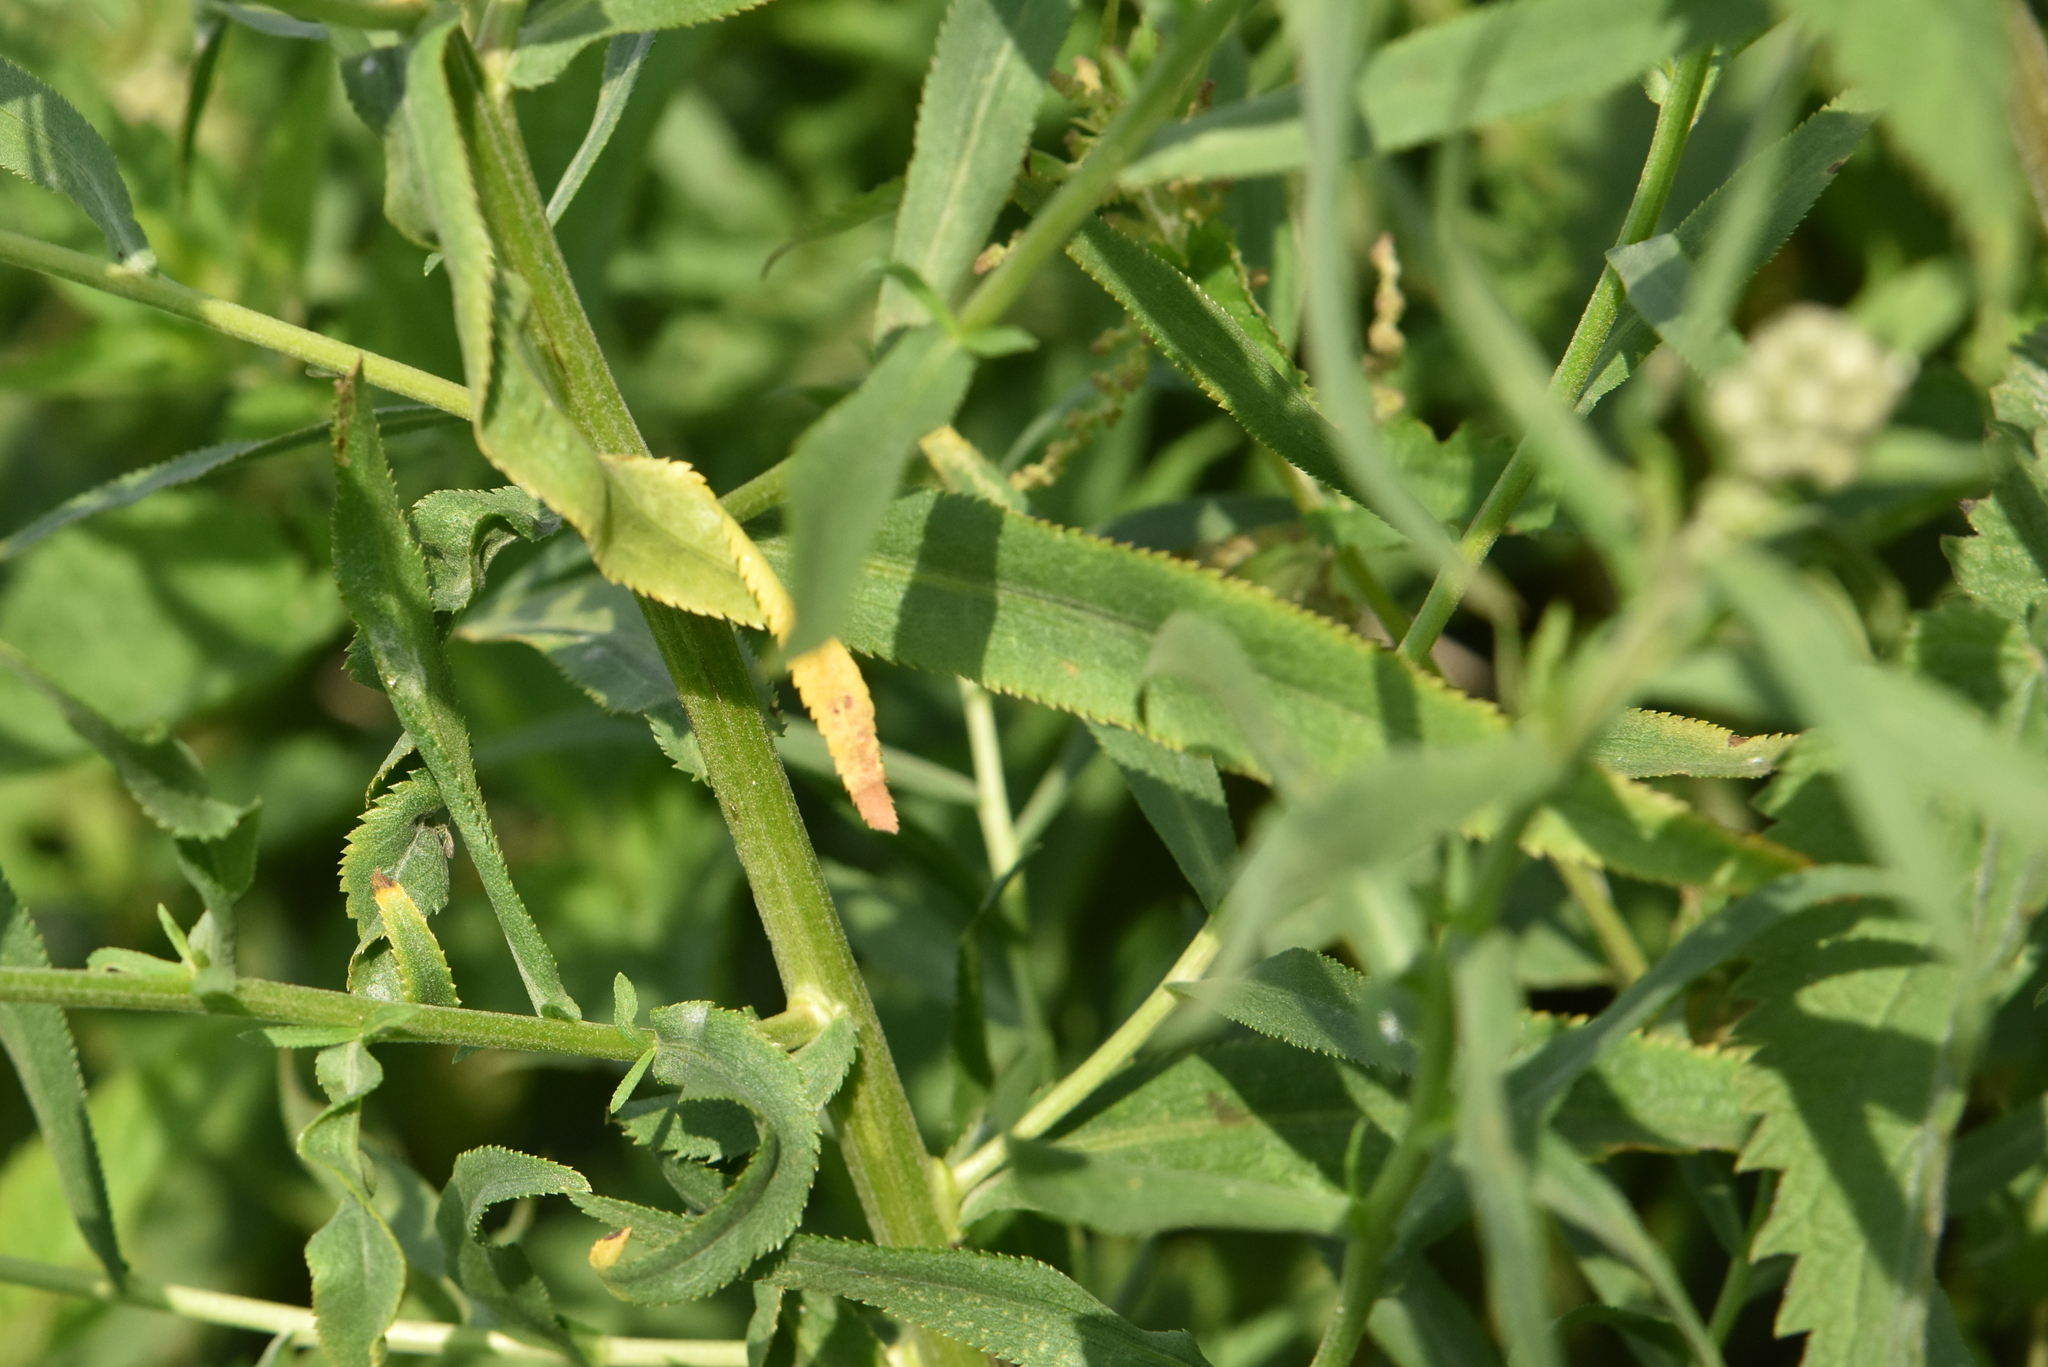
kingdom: Plantae
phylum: Tracheophyta
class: Magnoliopsida
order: Asterales
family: Asteraceae
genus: Achillea
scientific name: Achillea salicifolia
